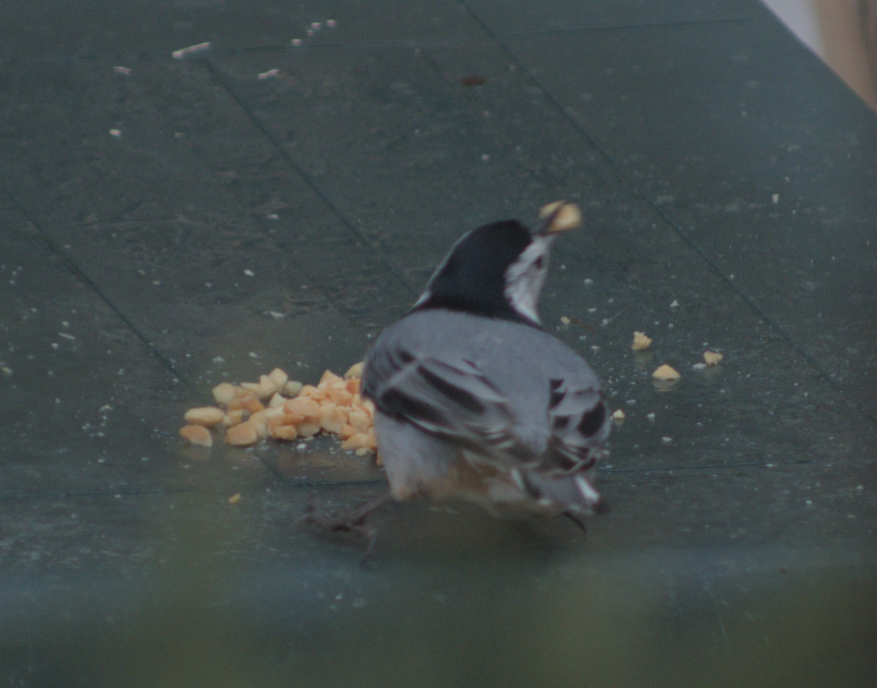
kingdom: Animalia
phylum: Chordata
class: Aves
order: Passeriformes
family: Sittidae
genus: Sitta
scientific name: Sitta carolinensis
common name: White-breasted nuthatch
